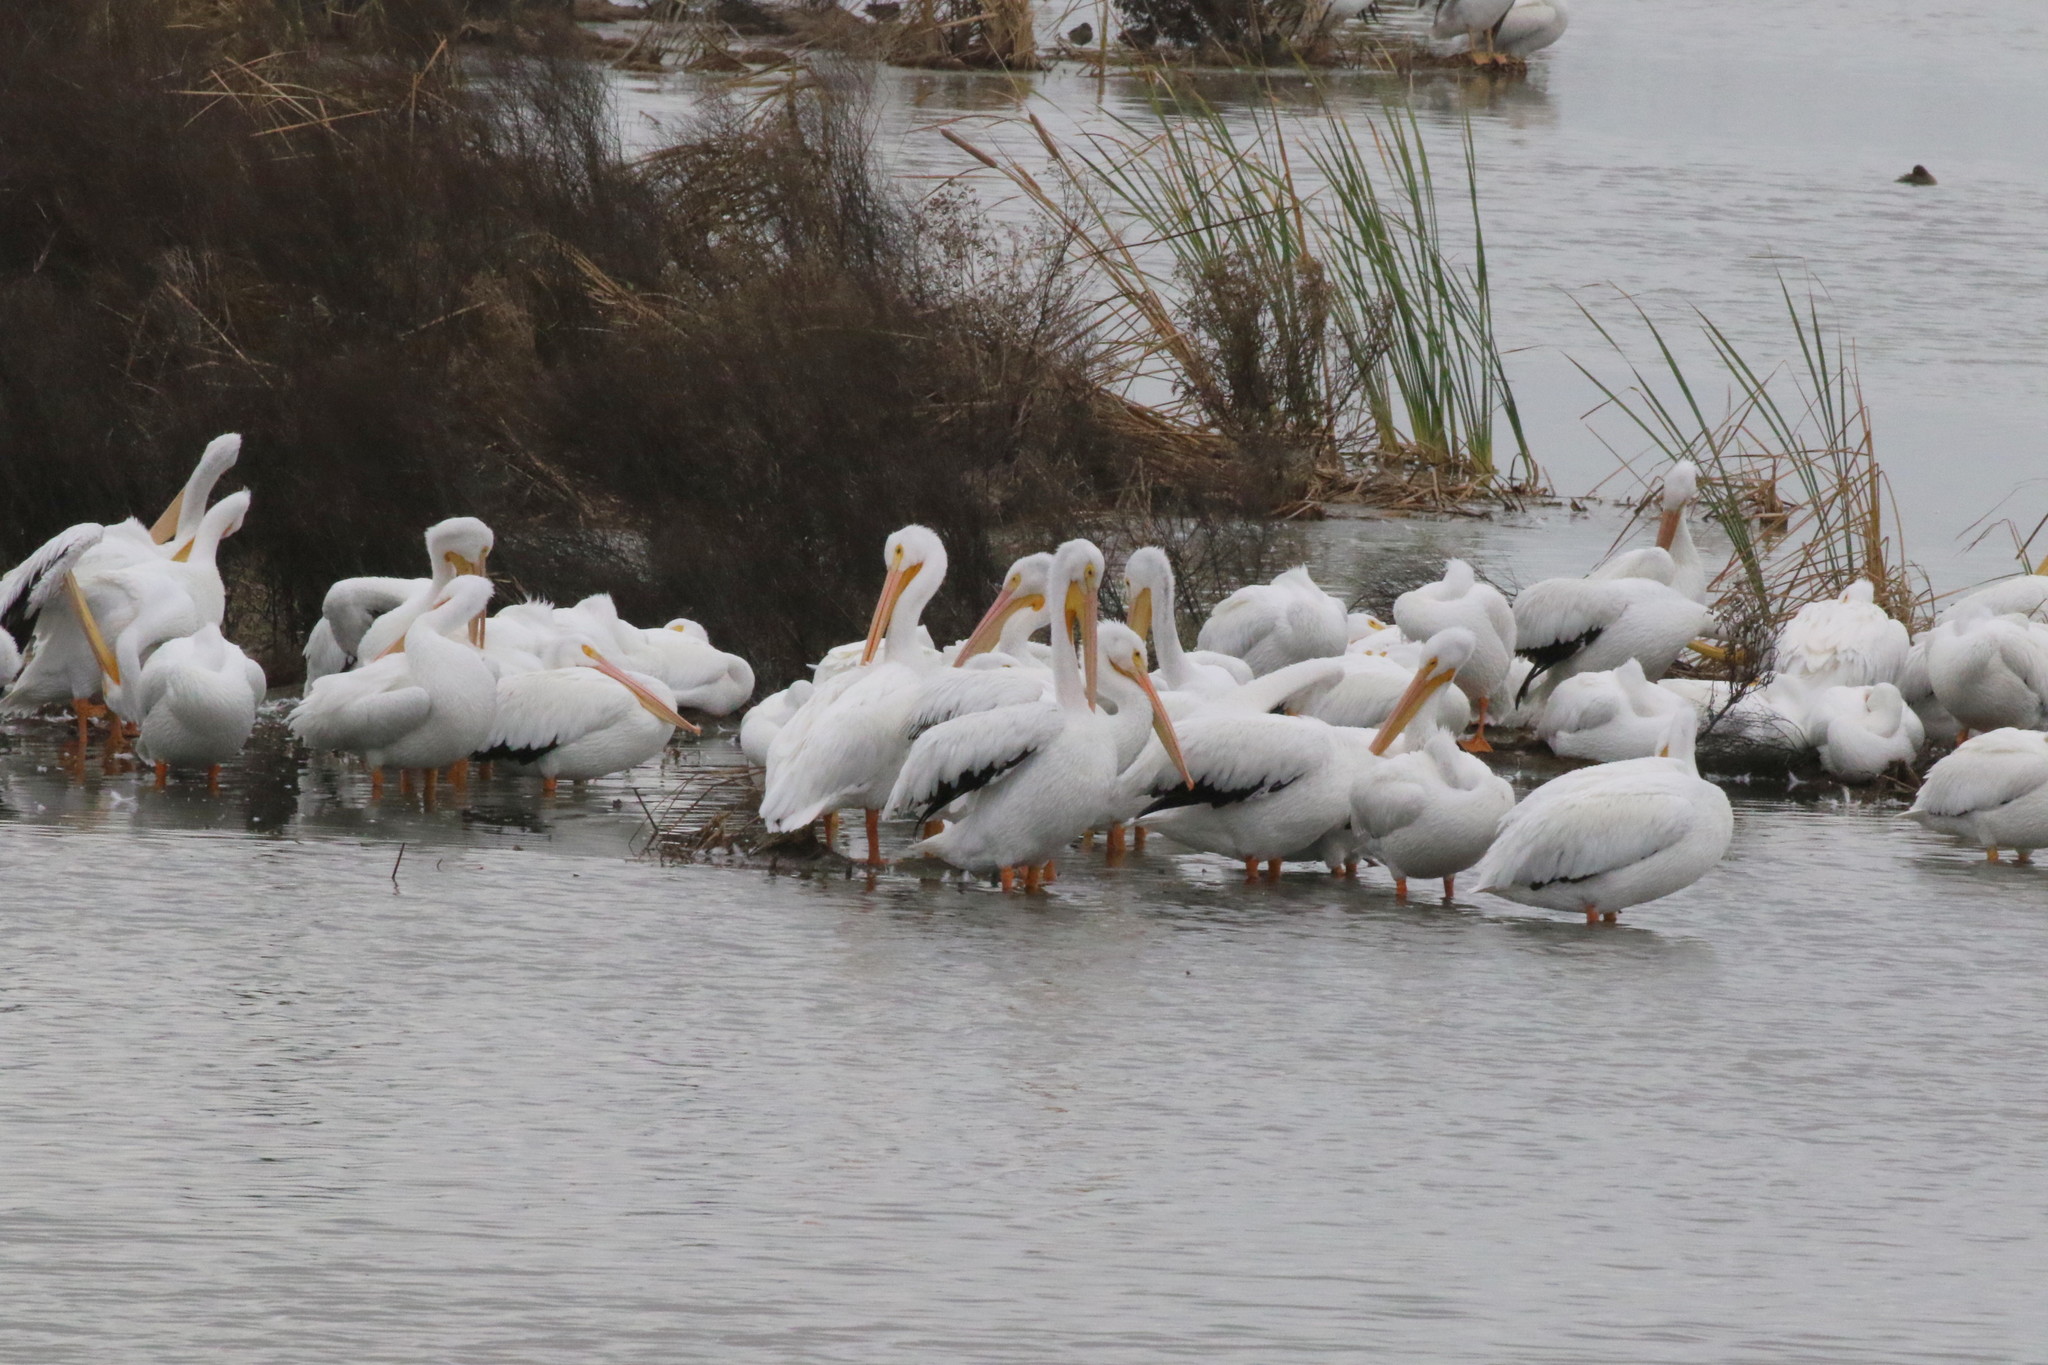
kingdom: Animalia
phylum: Chordata
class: Aves
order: Pelecaniformes
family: Pelecanidae
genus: Pelecanus
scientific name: Pelecanus erythrorhynchos
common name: American white pelican
